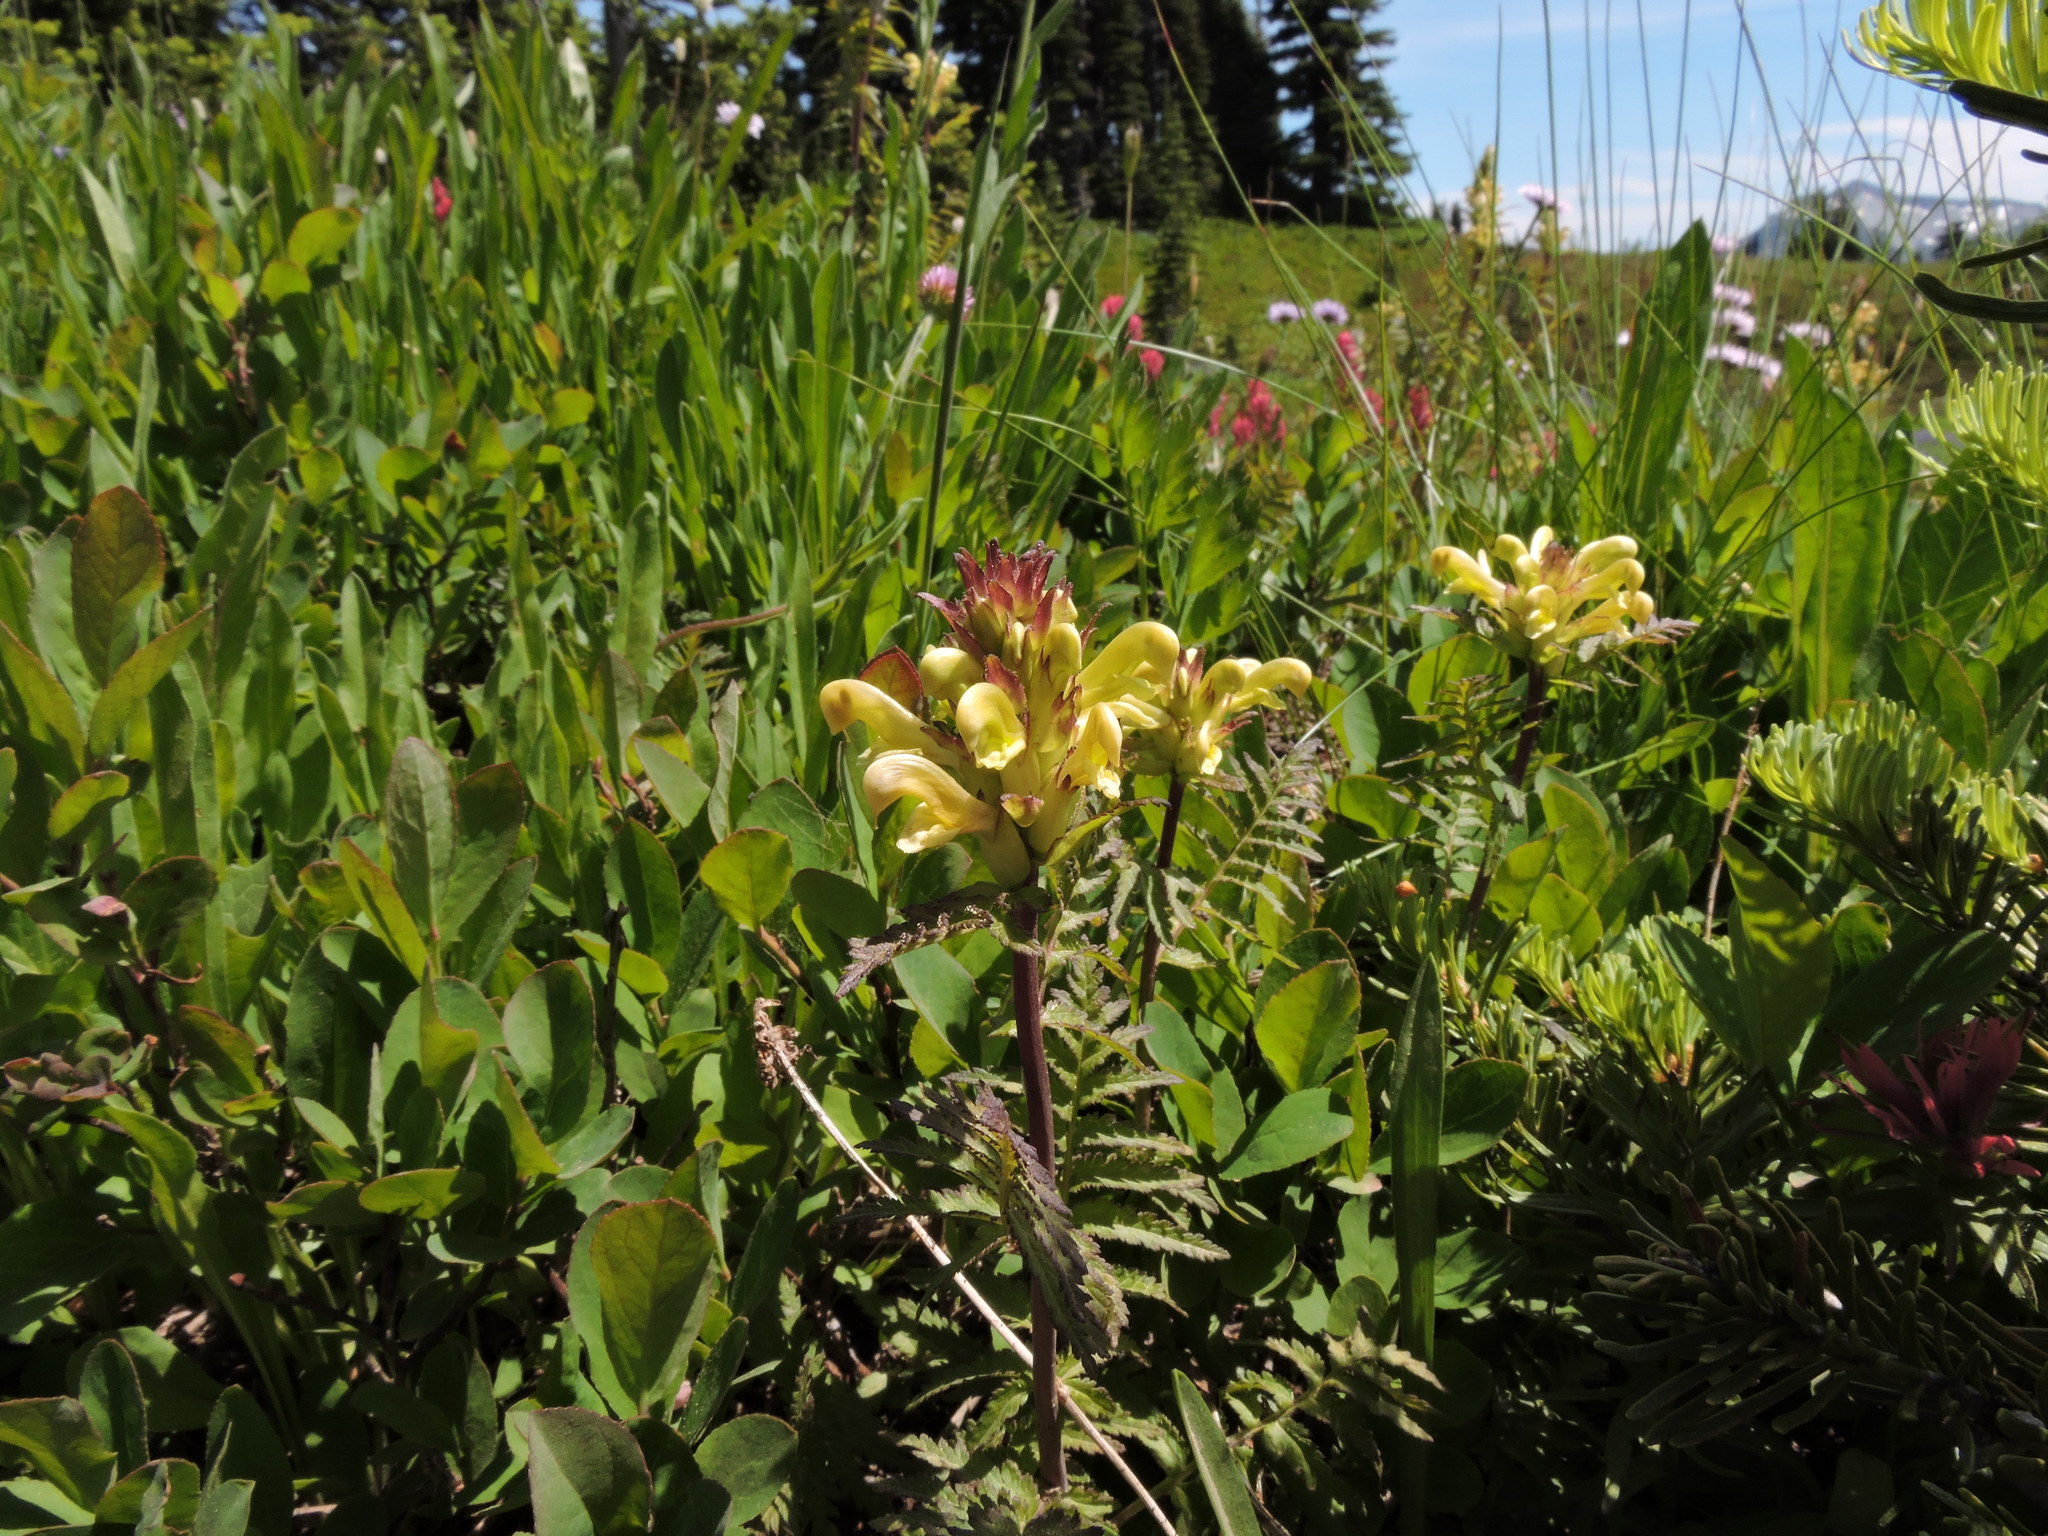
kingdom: Plantae
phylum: Tracheophyta
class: Magnoliopsida
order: Lamiales
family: Orobanchaceae
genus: Pedicularis
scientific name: Pedicularis rainierensis
